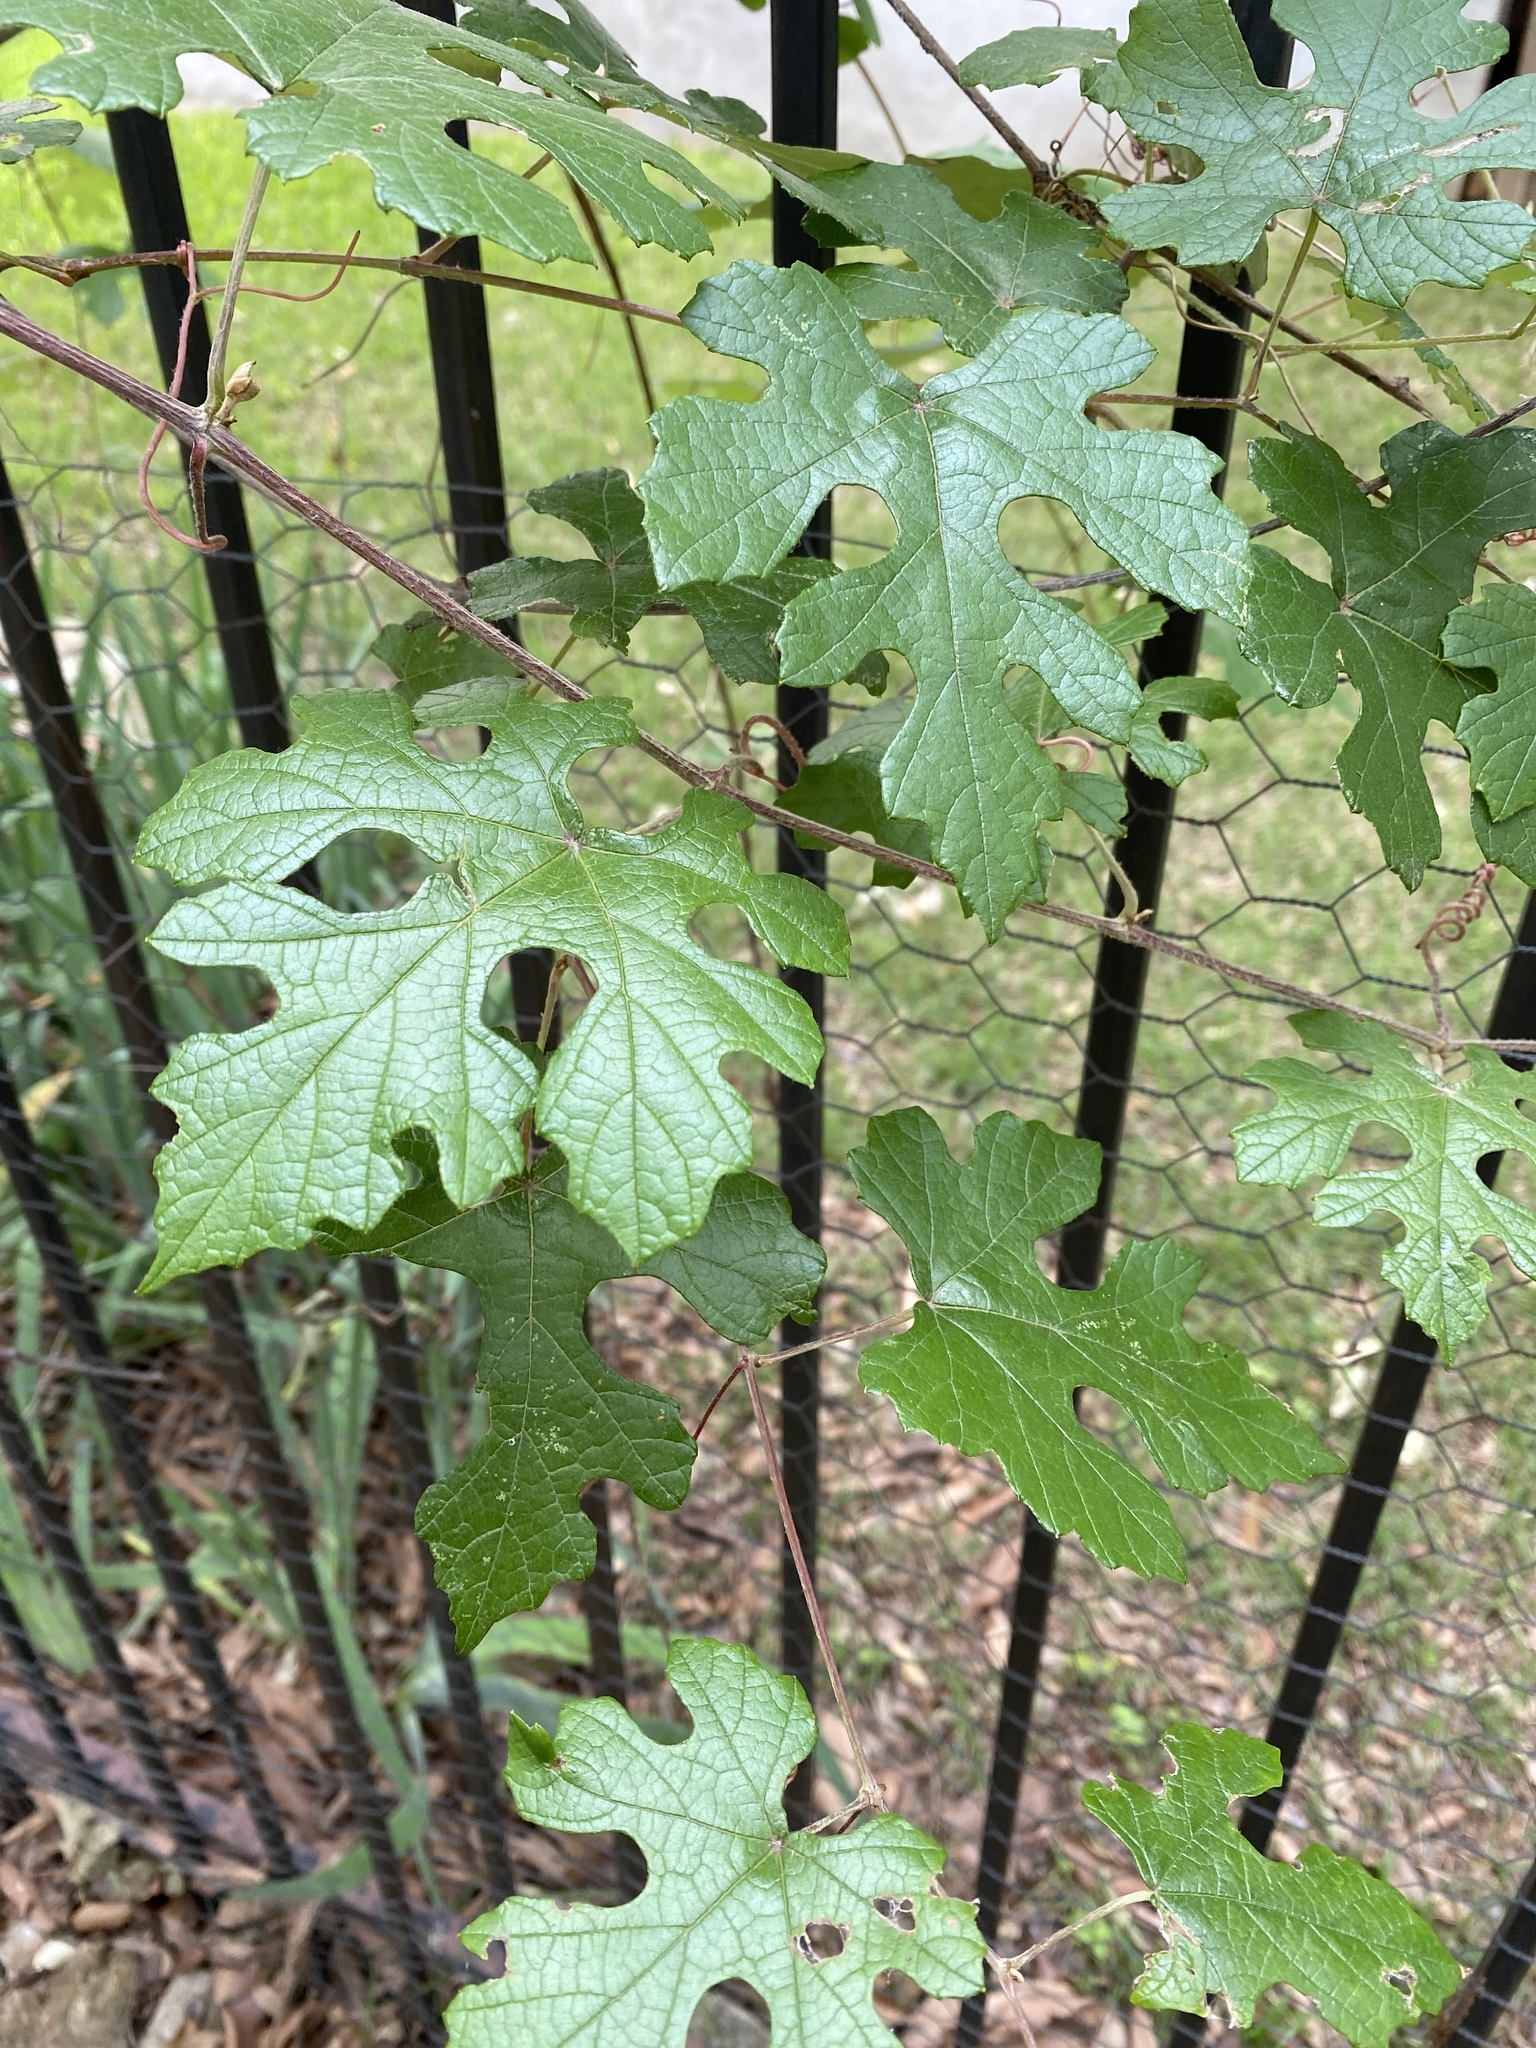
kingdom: Plantae
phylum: Tracheophyta
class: Magnoliopsida
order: Vitales
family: Vitaceae
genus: Vitis
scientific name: Vitis mustangensis
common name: Mustang grape
